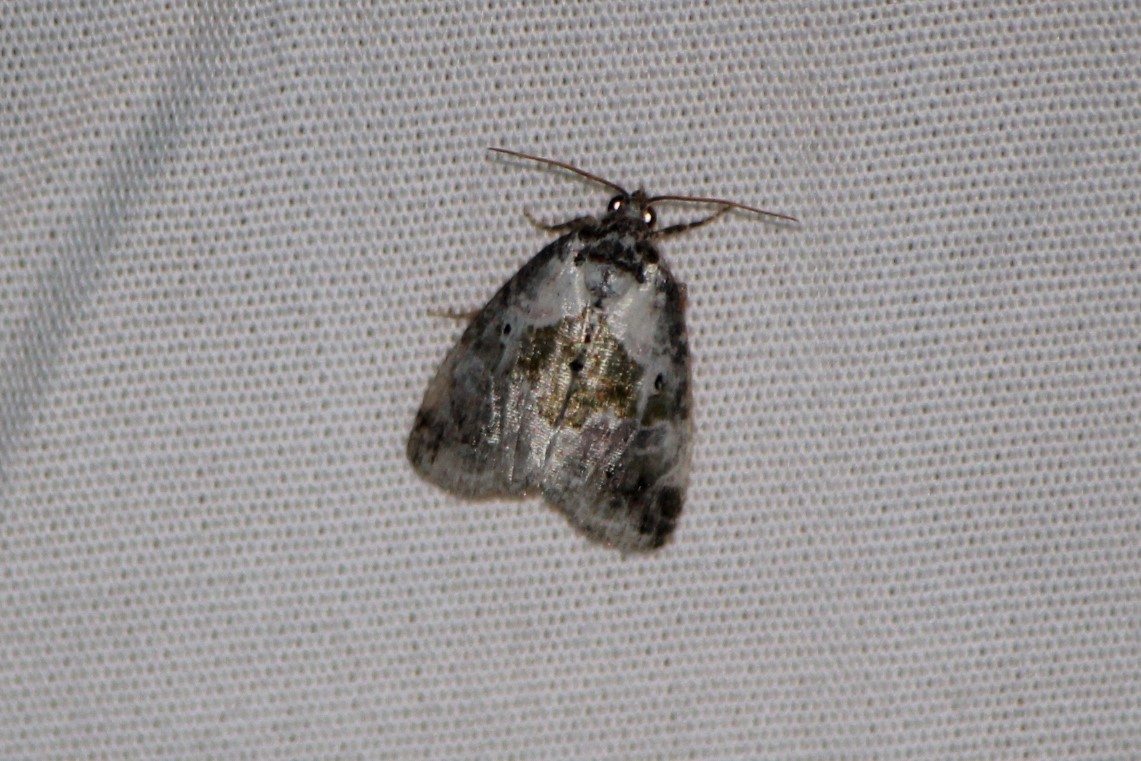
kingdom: Animalia
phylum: Arthropoda
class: Insecta
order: Lepidoptera
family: Noctuidae
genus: Maliattha
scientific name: Maliattha synochitis
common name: Black-dotted glyph
